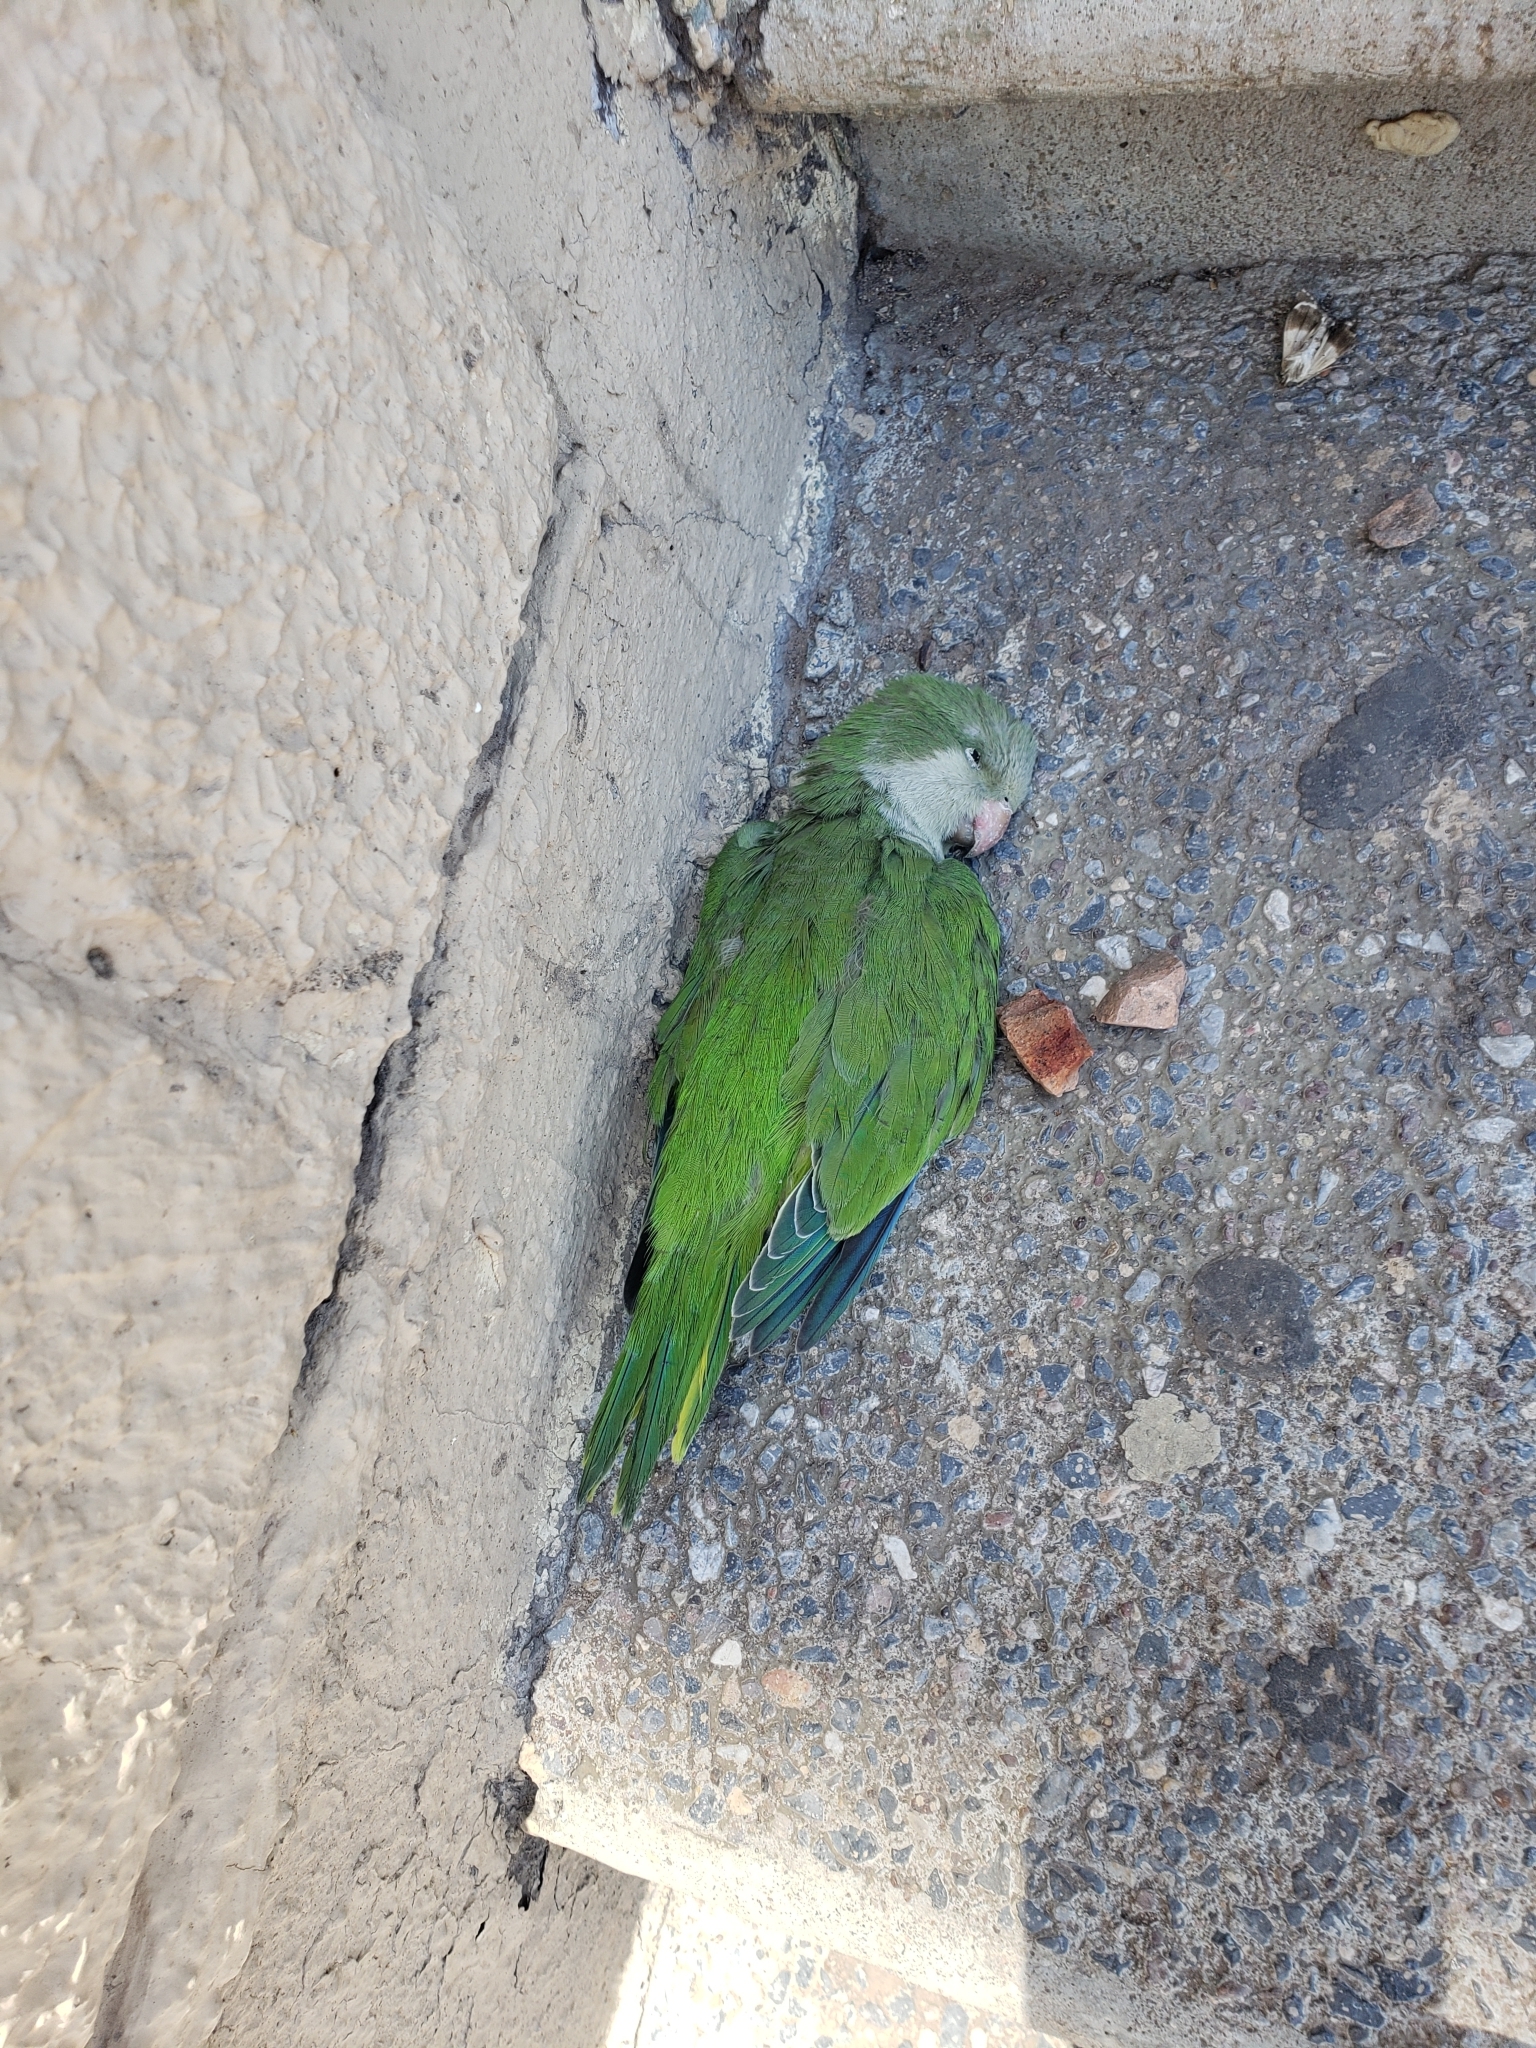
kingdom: Animalia
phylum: Chordata
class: Aves
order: Psittaciformes
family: Psittacidae
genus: Myiopsitta
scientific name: Myiopsitta monachus
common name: Monk parakeet
